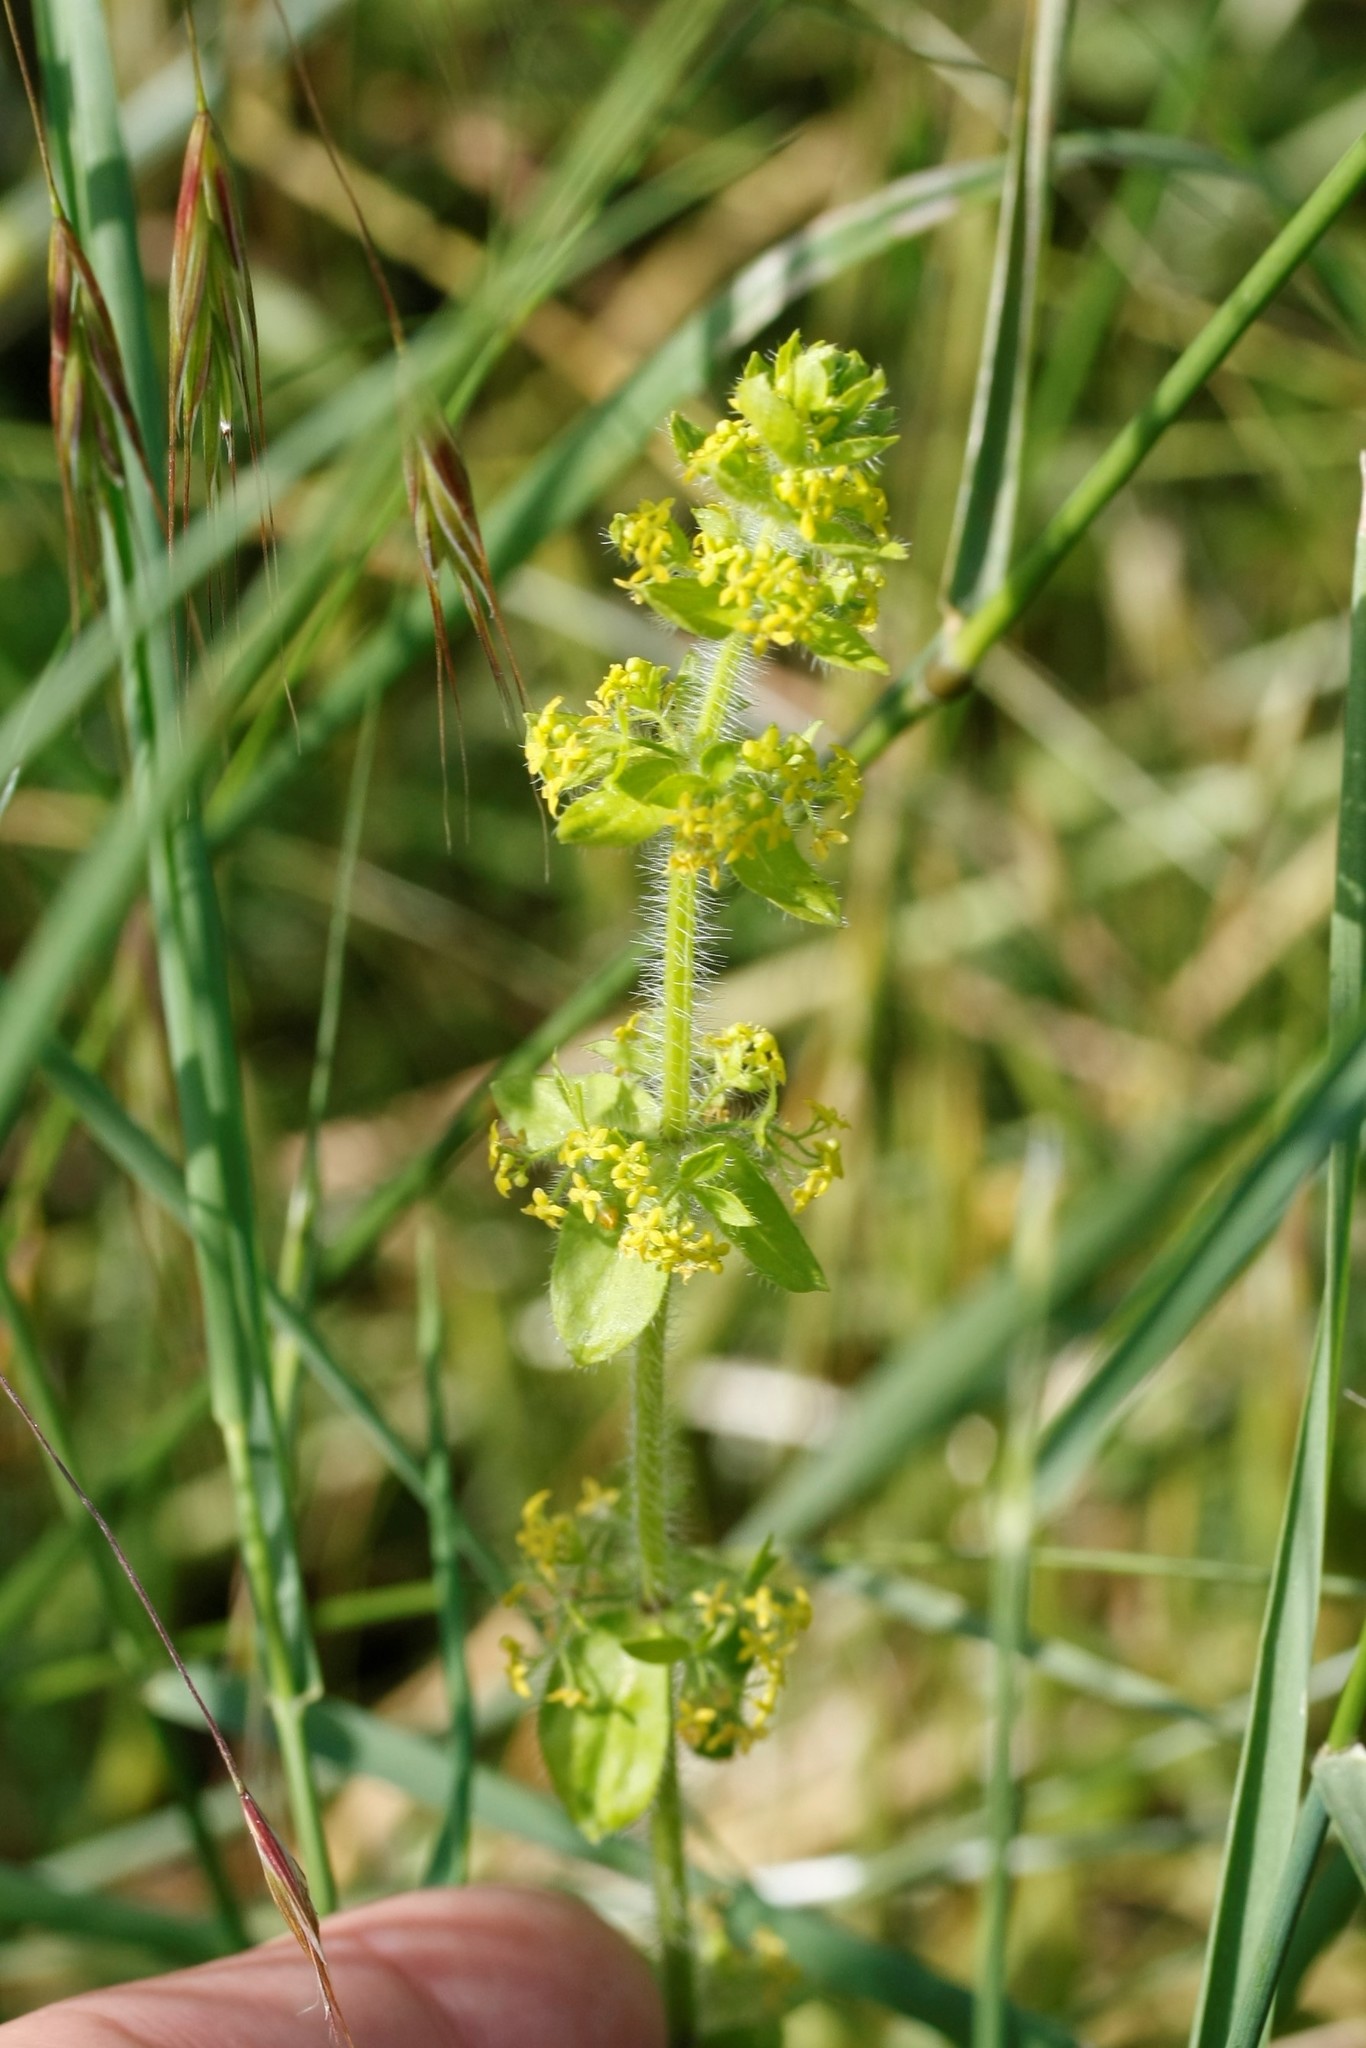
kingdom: Plantae
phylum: Tracheophyta
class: Magnoliopsida
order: Gentianales
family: Rubiaceae
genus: Cruciata
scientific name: Cruciata laevipes
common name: Crosswort
